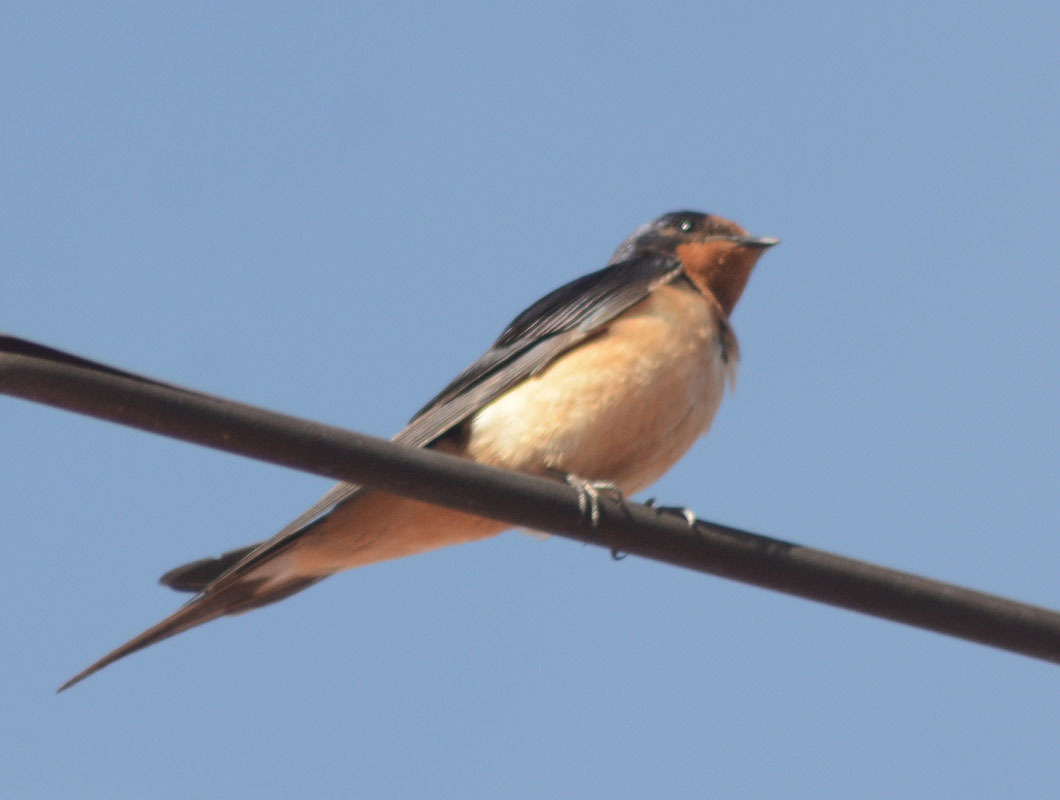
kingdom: Animalia
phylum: Chordata
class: Aves
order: Passeriformes
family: Hirundinidae
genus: Hirundo
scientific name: Hirundo rustica
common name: Barn swallow
